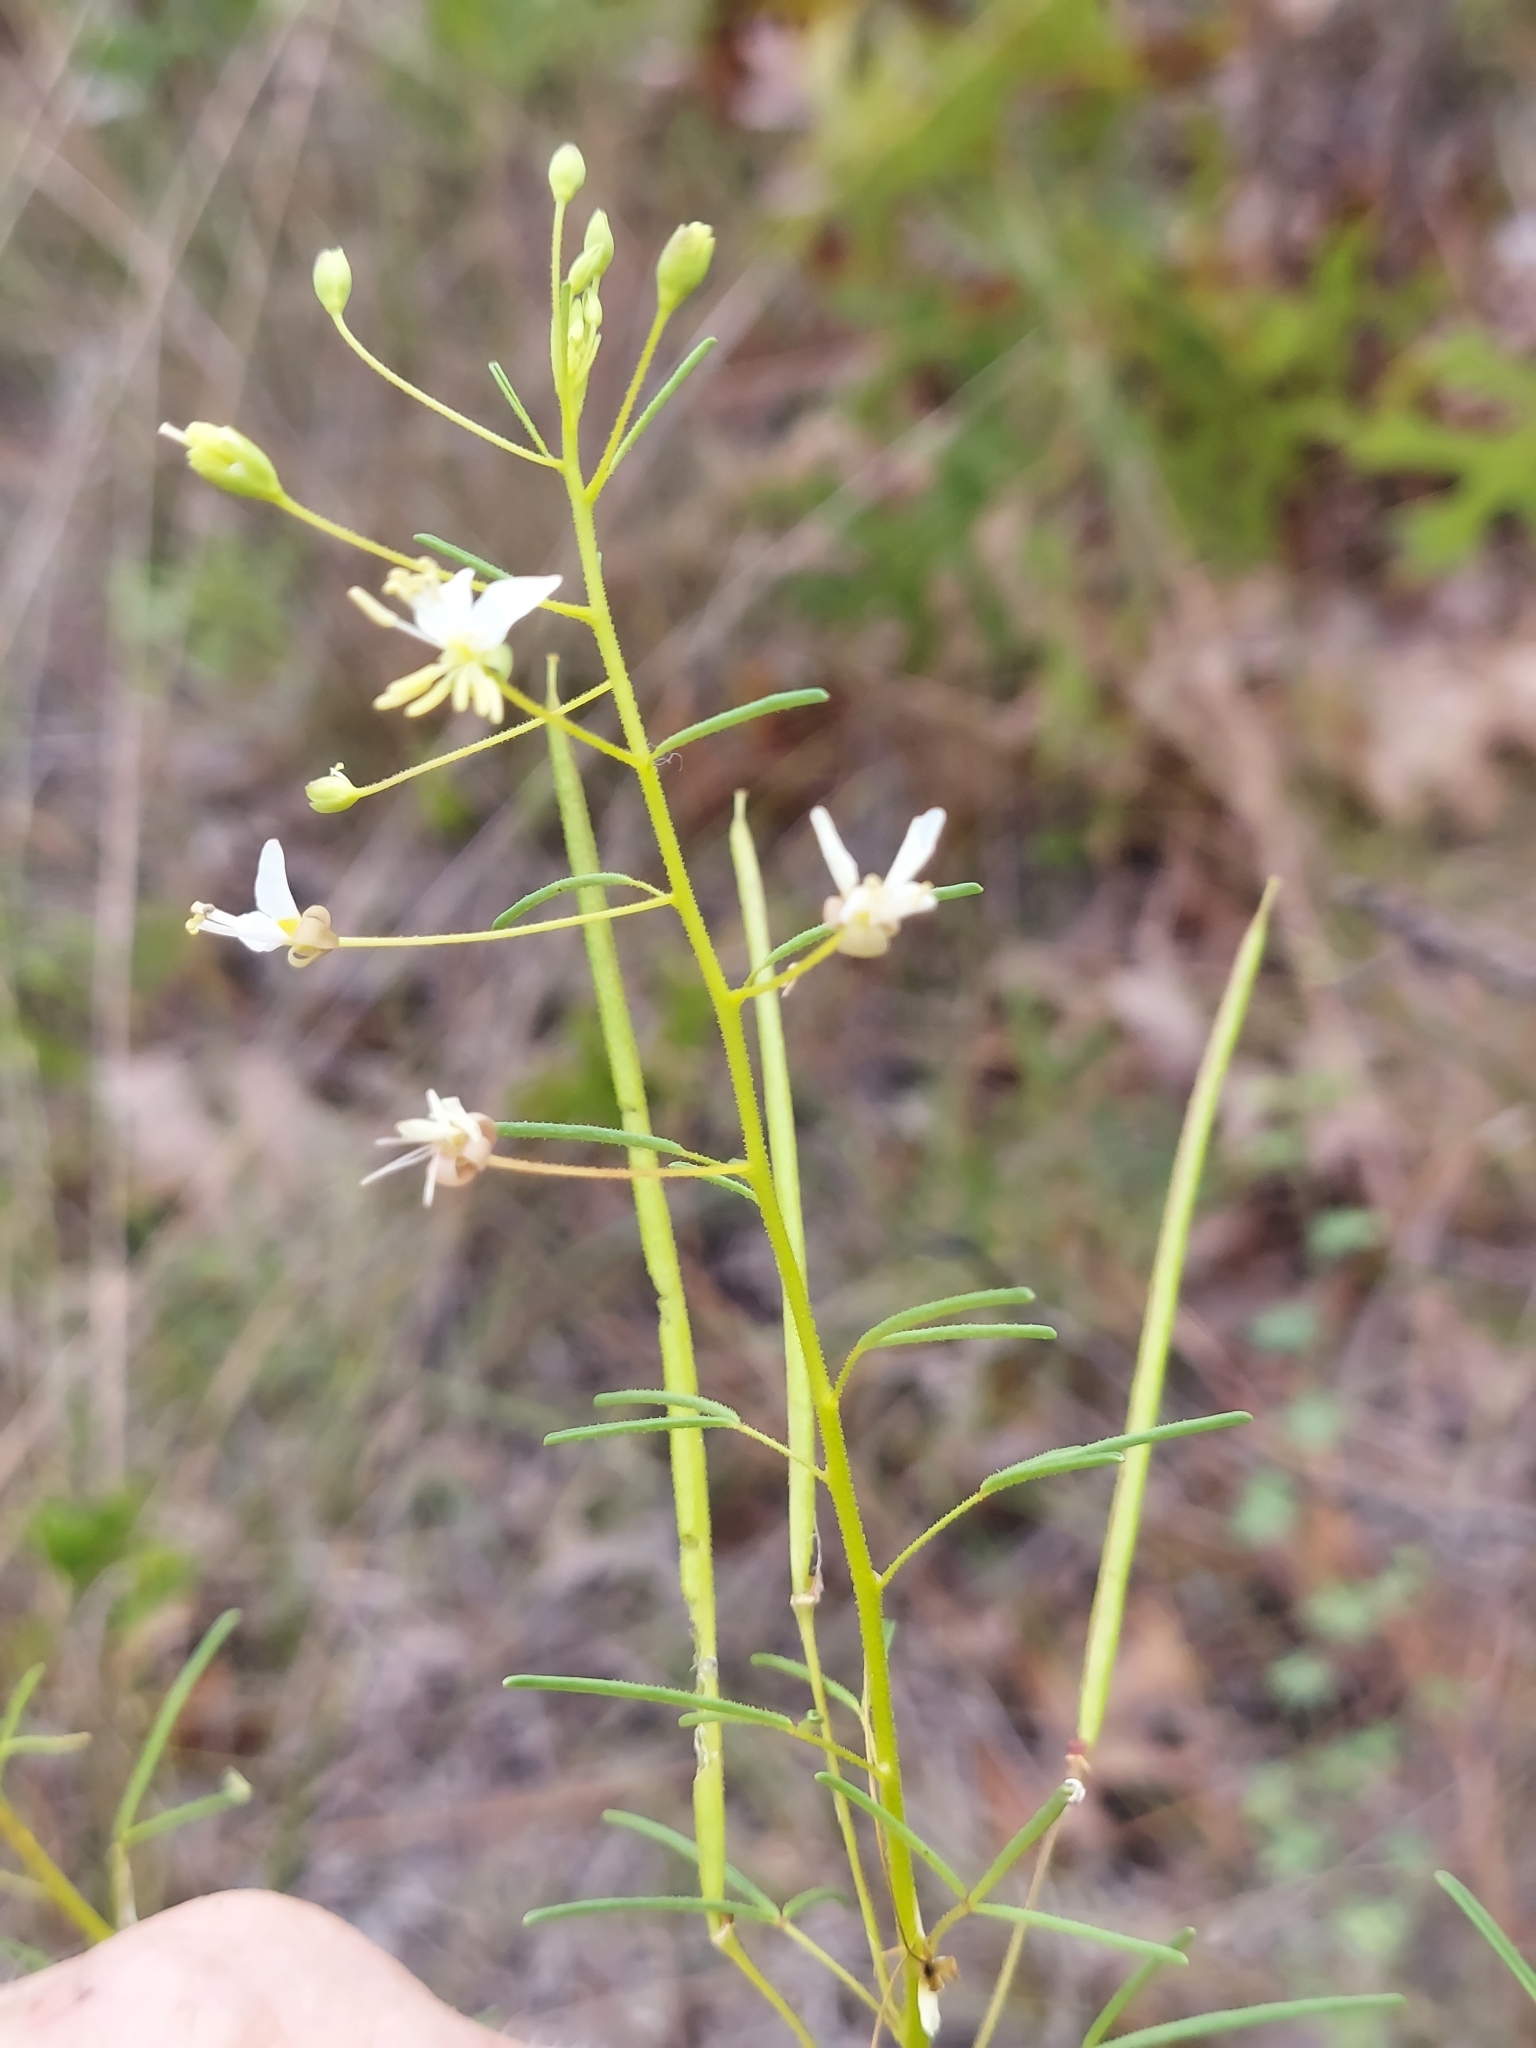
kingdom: Plantae
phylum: Tracheophyta
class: Magnoliopsida
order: Brassicales
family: Cleomaceae
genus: Polanisia
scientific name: Polanisia tenuifolia
